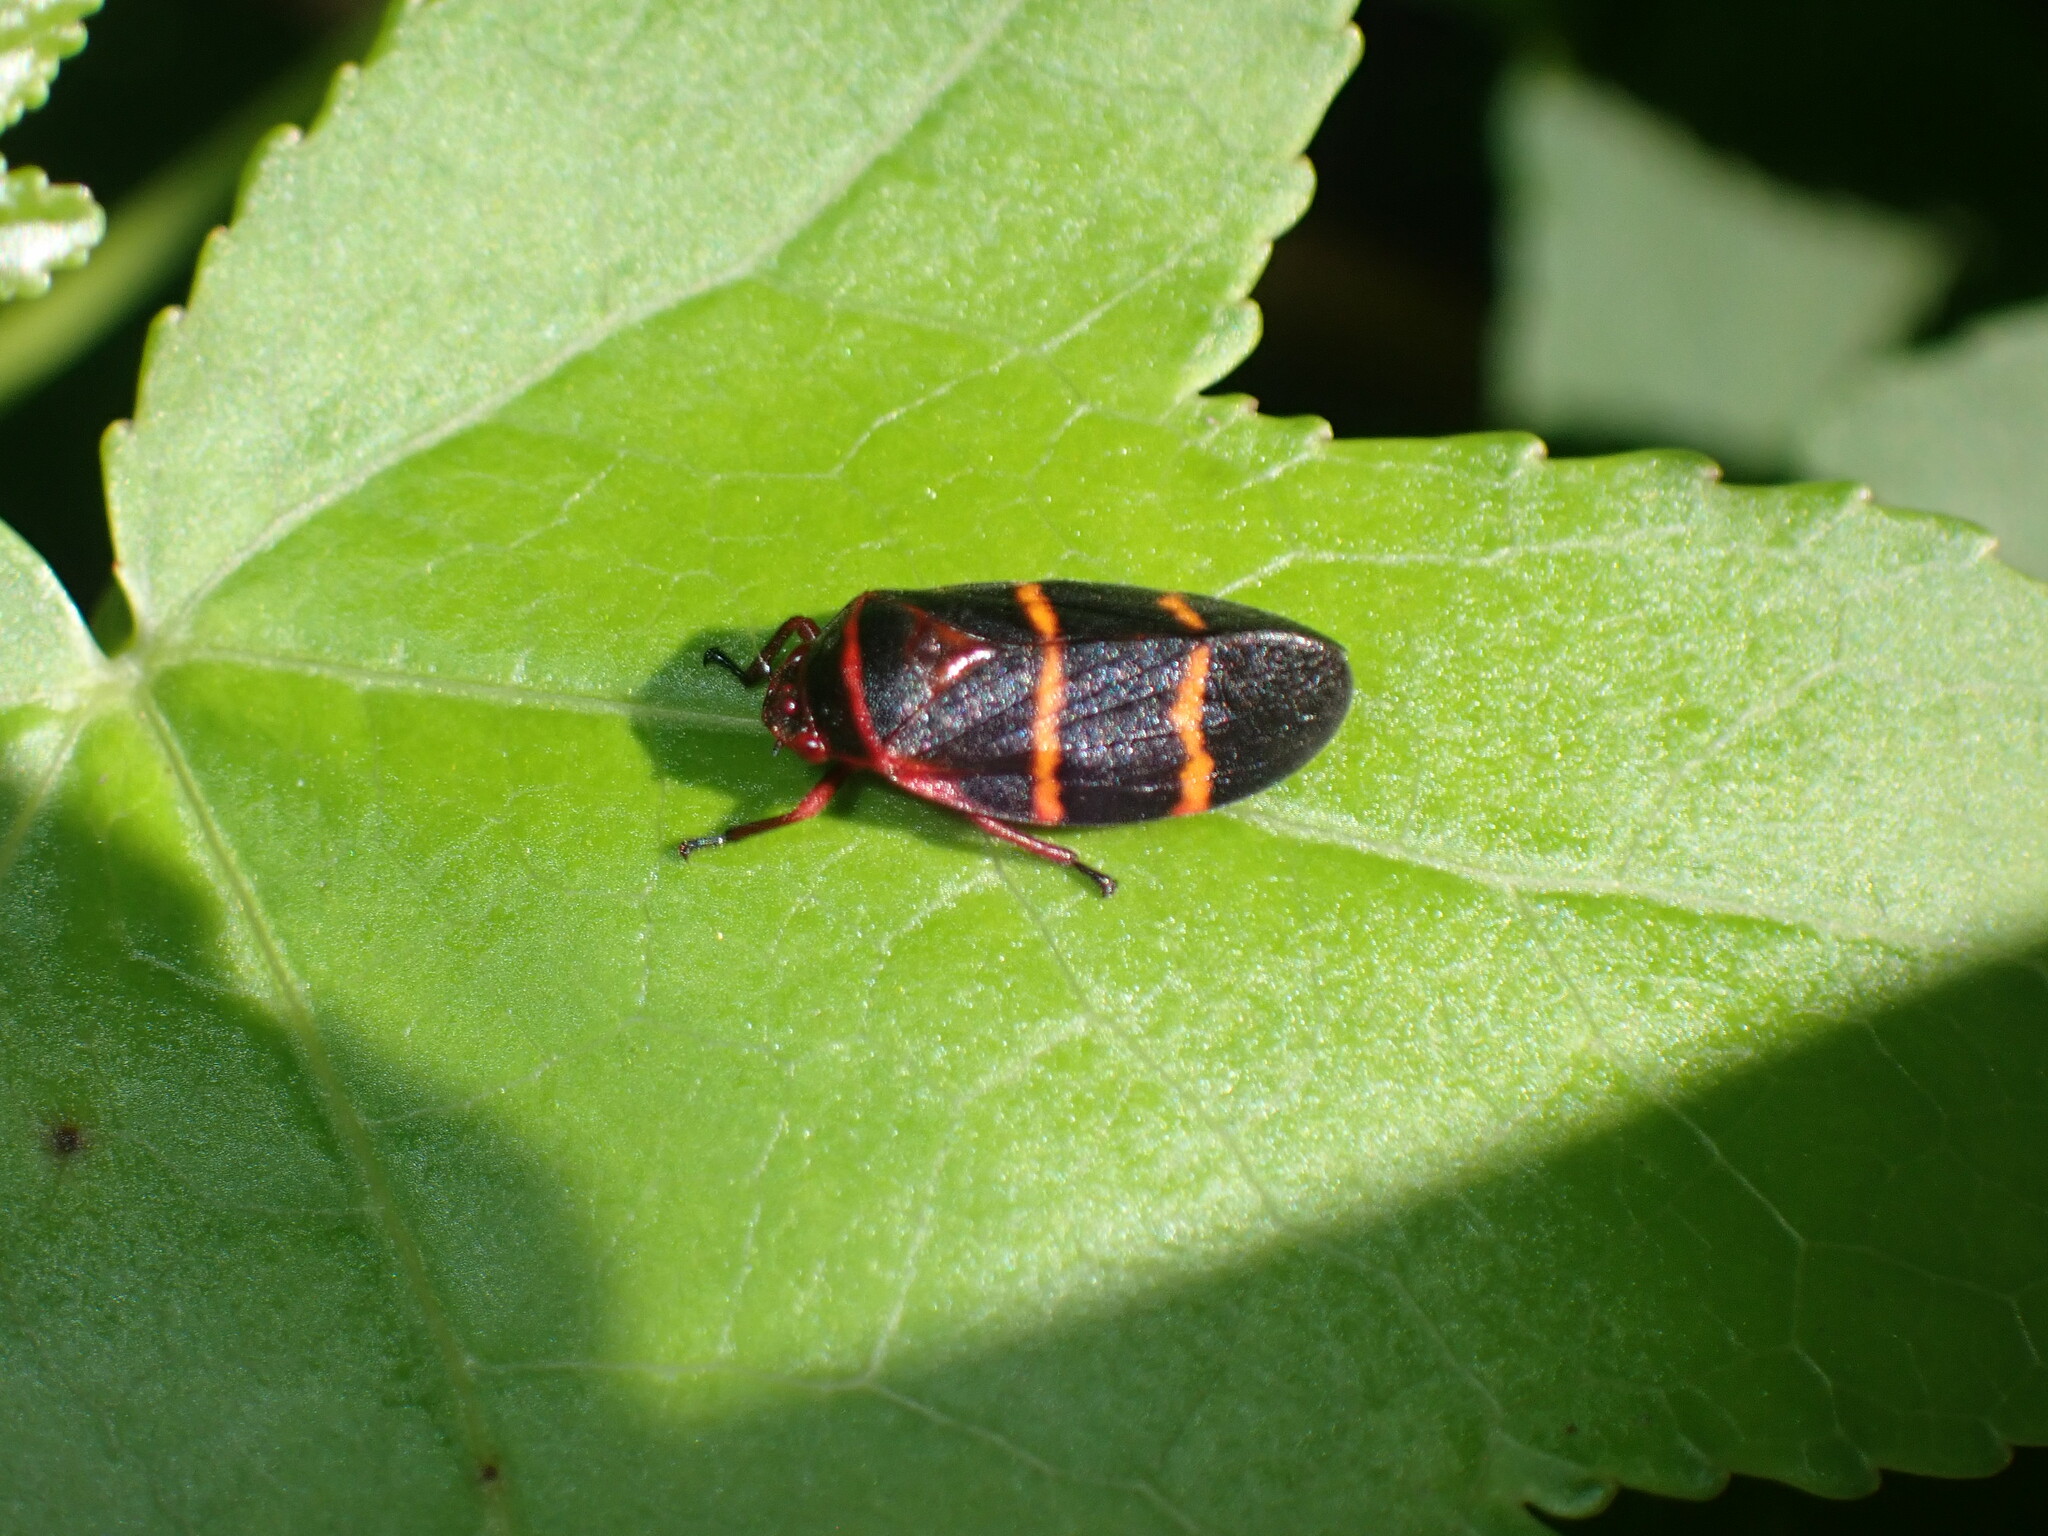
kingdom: Animalia
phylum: Arthropoda
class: Insecta
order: Hemiptera
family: Cercopidae
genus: Prosapia
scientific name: Prosapia bicincta
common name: Twolined spittlebug
